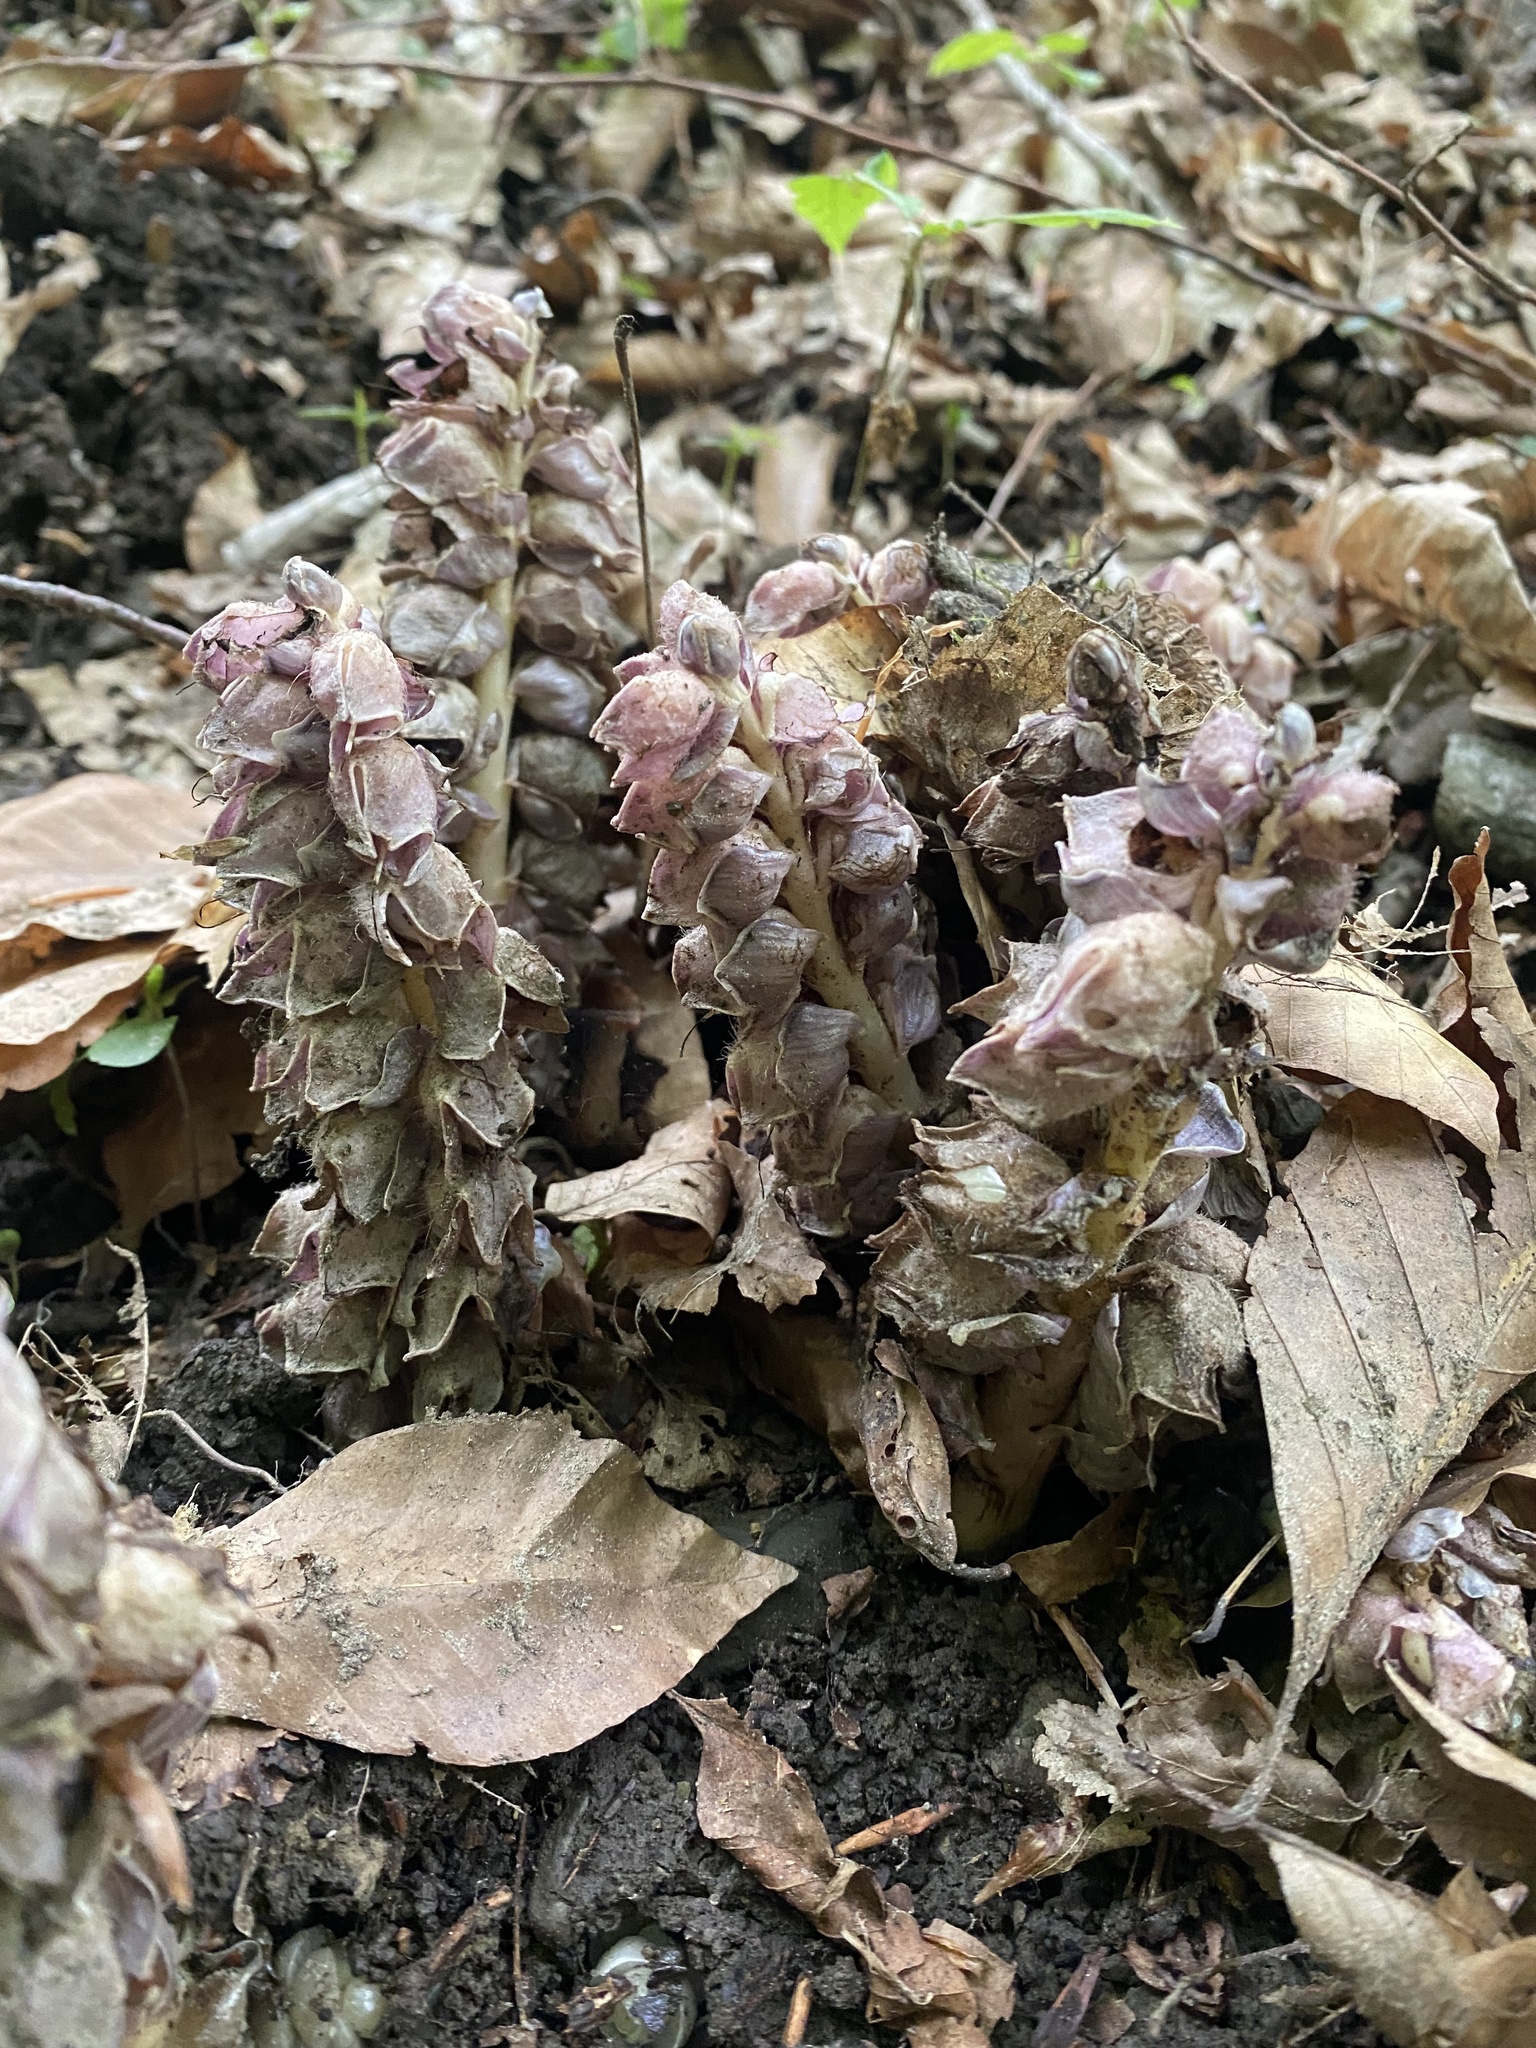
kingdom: Plantae
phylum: Tracheophyta
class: Magnoliopsida
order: Lamiales
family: Orobanchaceae
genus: Lathraea
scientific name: Lathraea squamaria
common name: Toothwort
